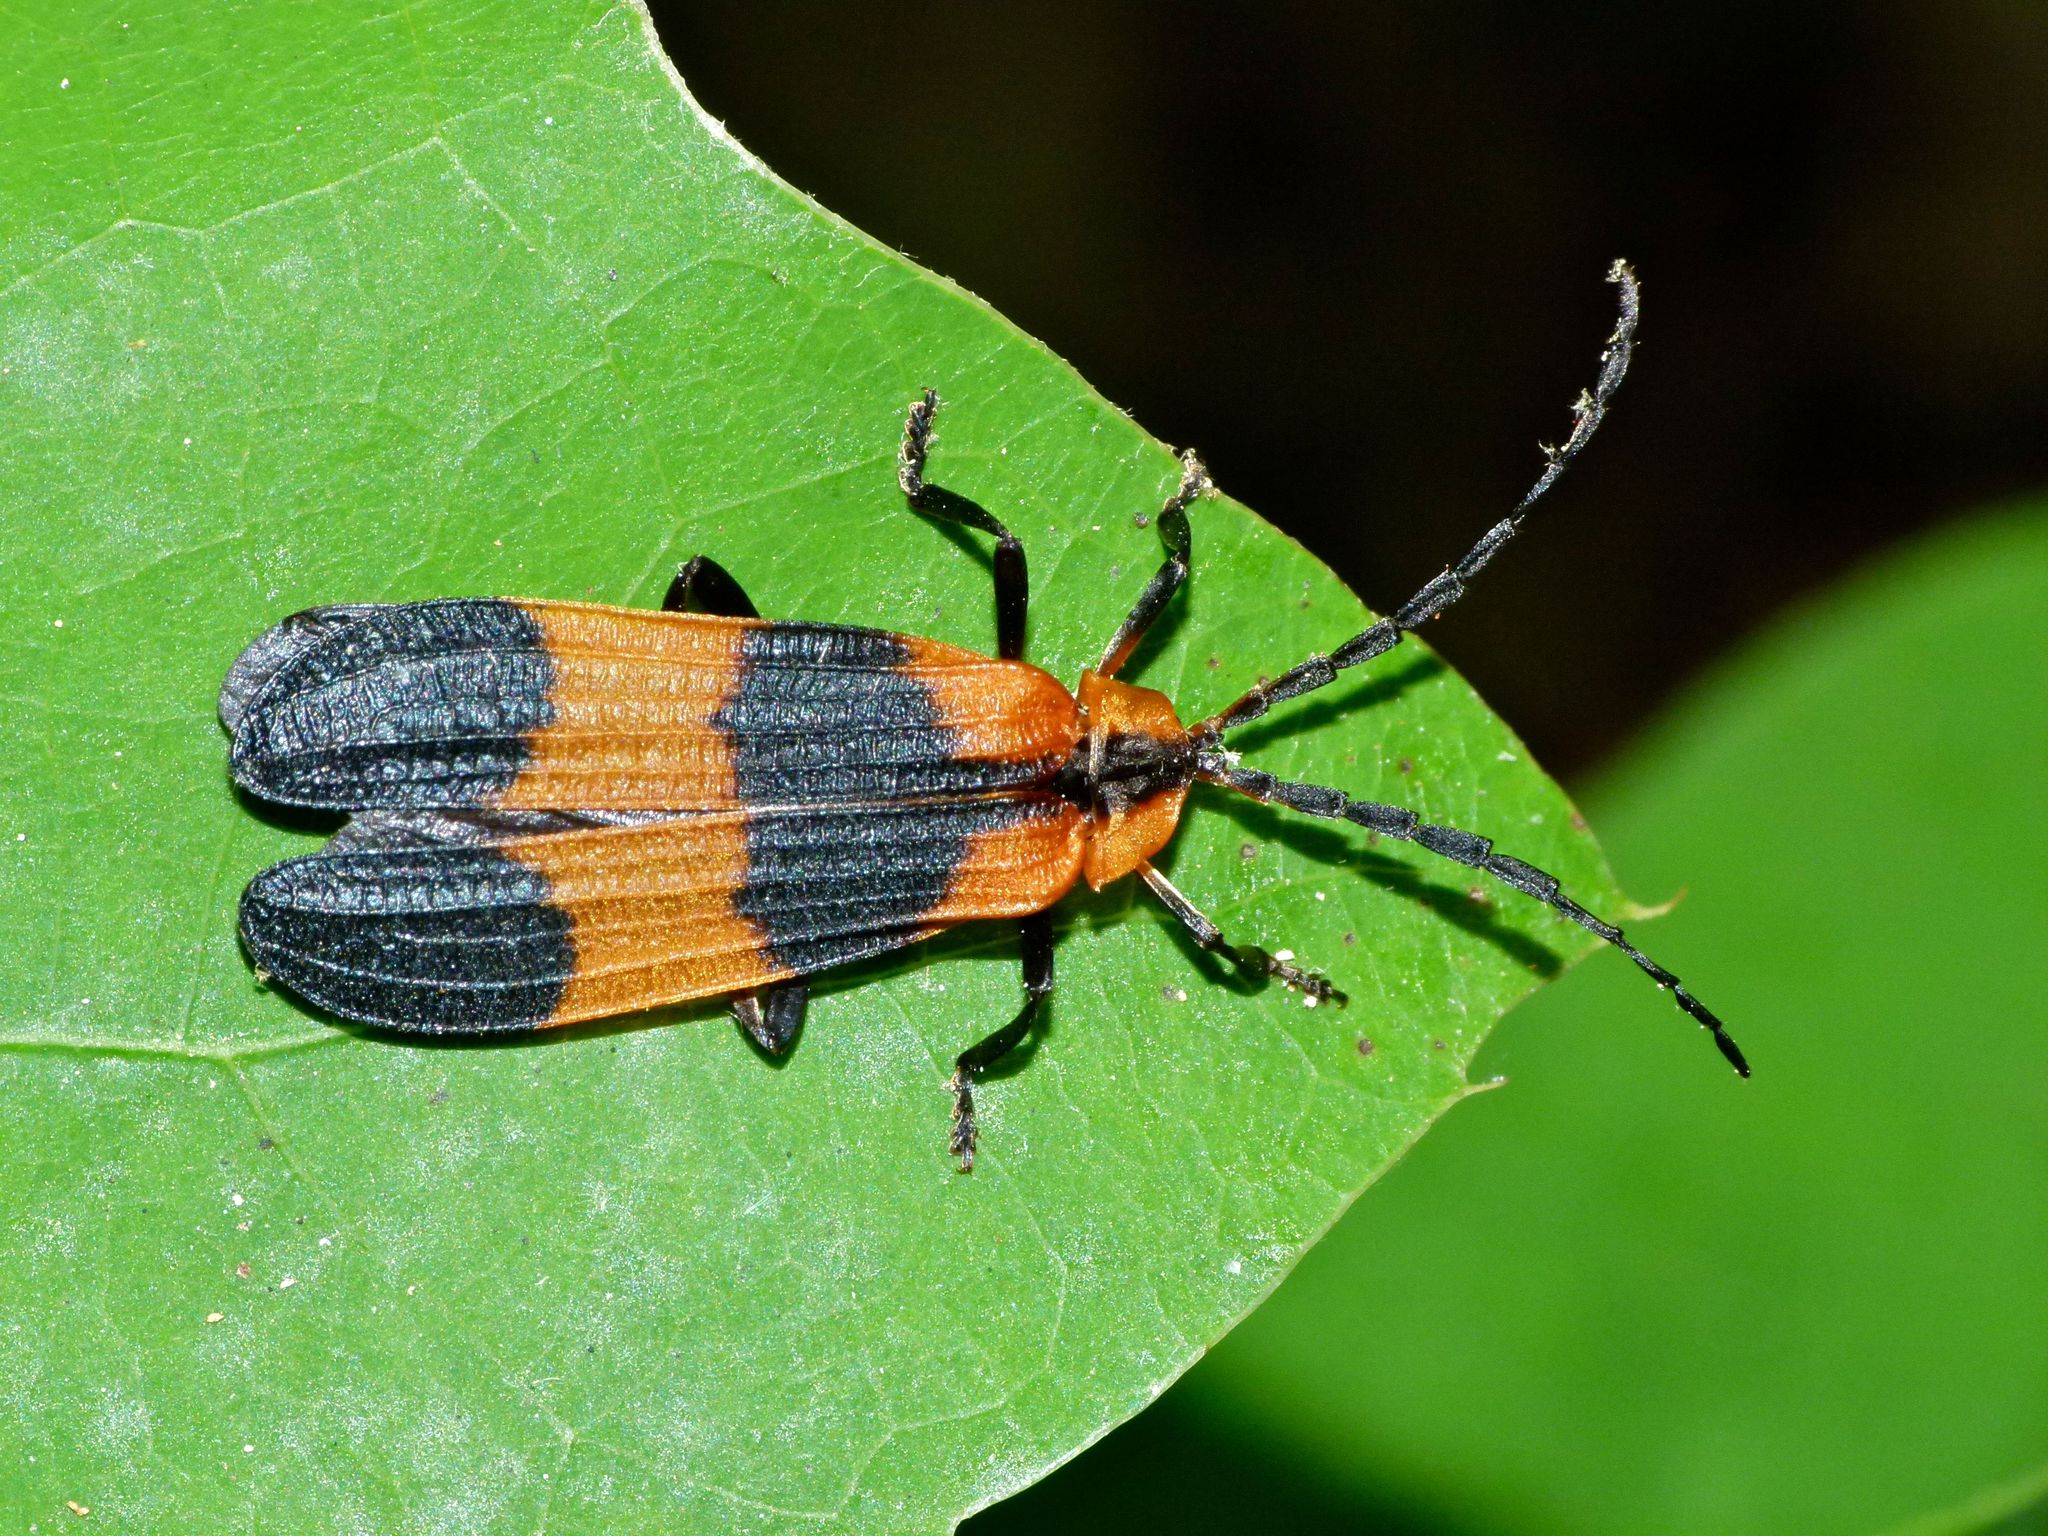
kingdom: Animalia
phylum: Arthropoda
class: Insecta
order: Coleoptera
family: Lycidae
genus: Calopteron
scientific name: Calopteron reticulatum
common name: Banded net-winged beetle
